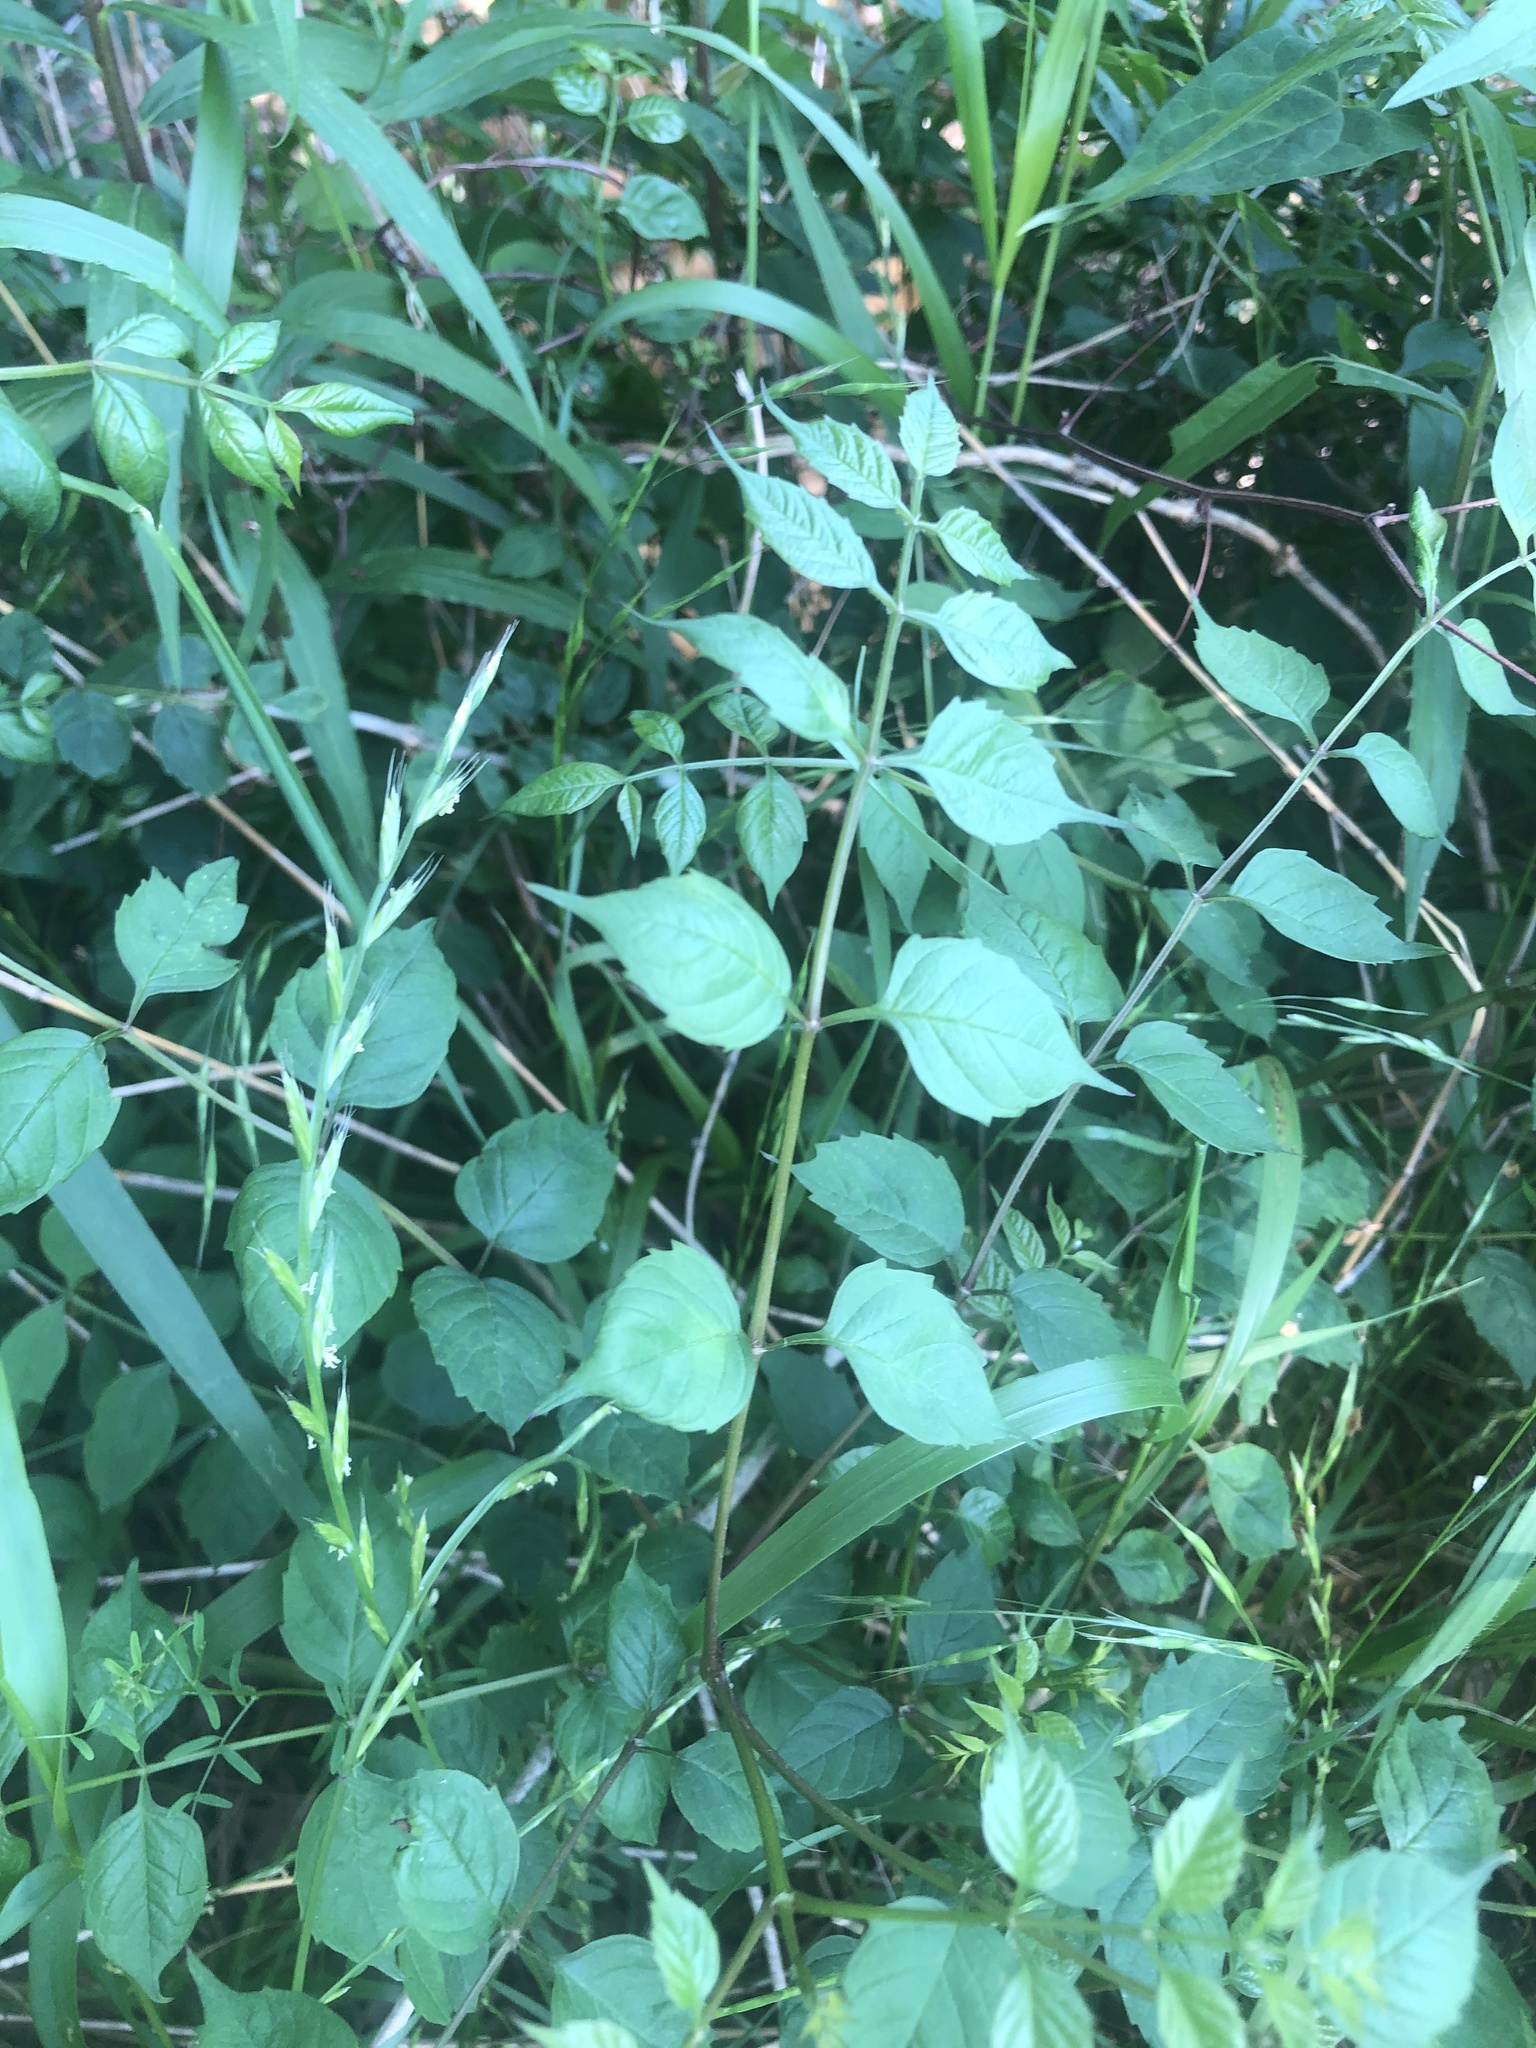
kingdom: Plantae
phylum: Tracheophyta
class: Magnoliopsida
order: Apiales
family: Araliaceae
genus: Aralia
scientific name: Aralia spinosa
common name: Hercules'-club
